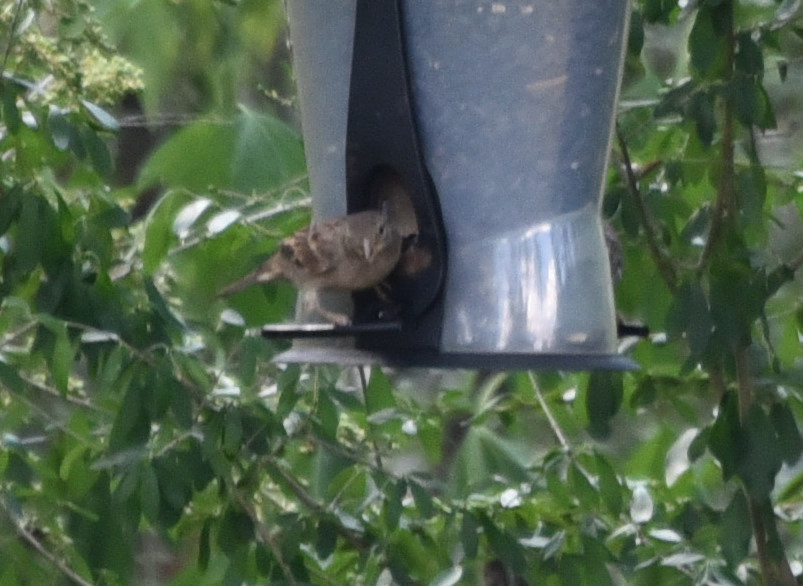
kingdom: Animalia
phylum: Chordata
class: Aves
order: Passeriformes
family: Passeridae
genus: Passer
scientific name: Passer domesticus
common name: House sparrow
